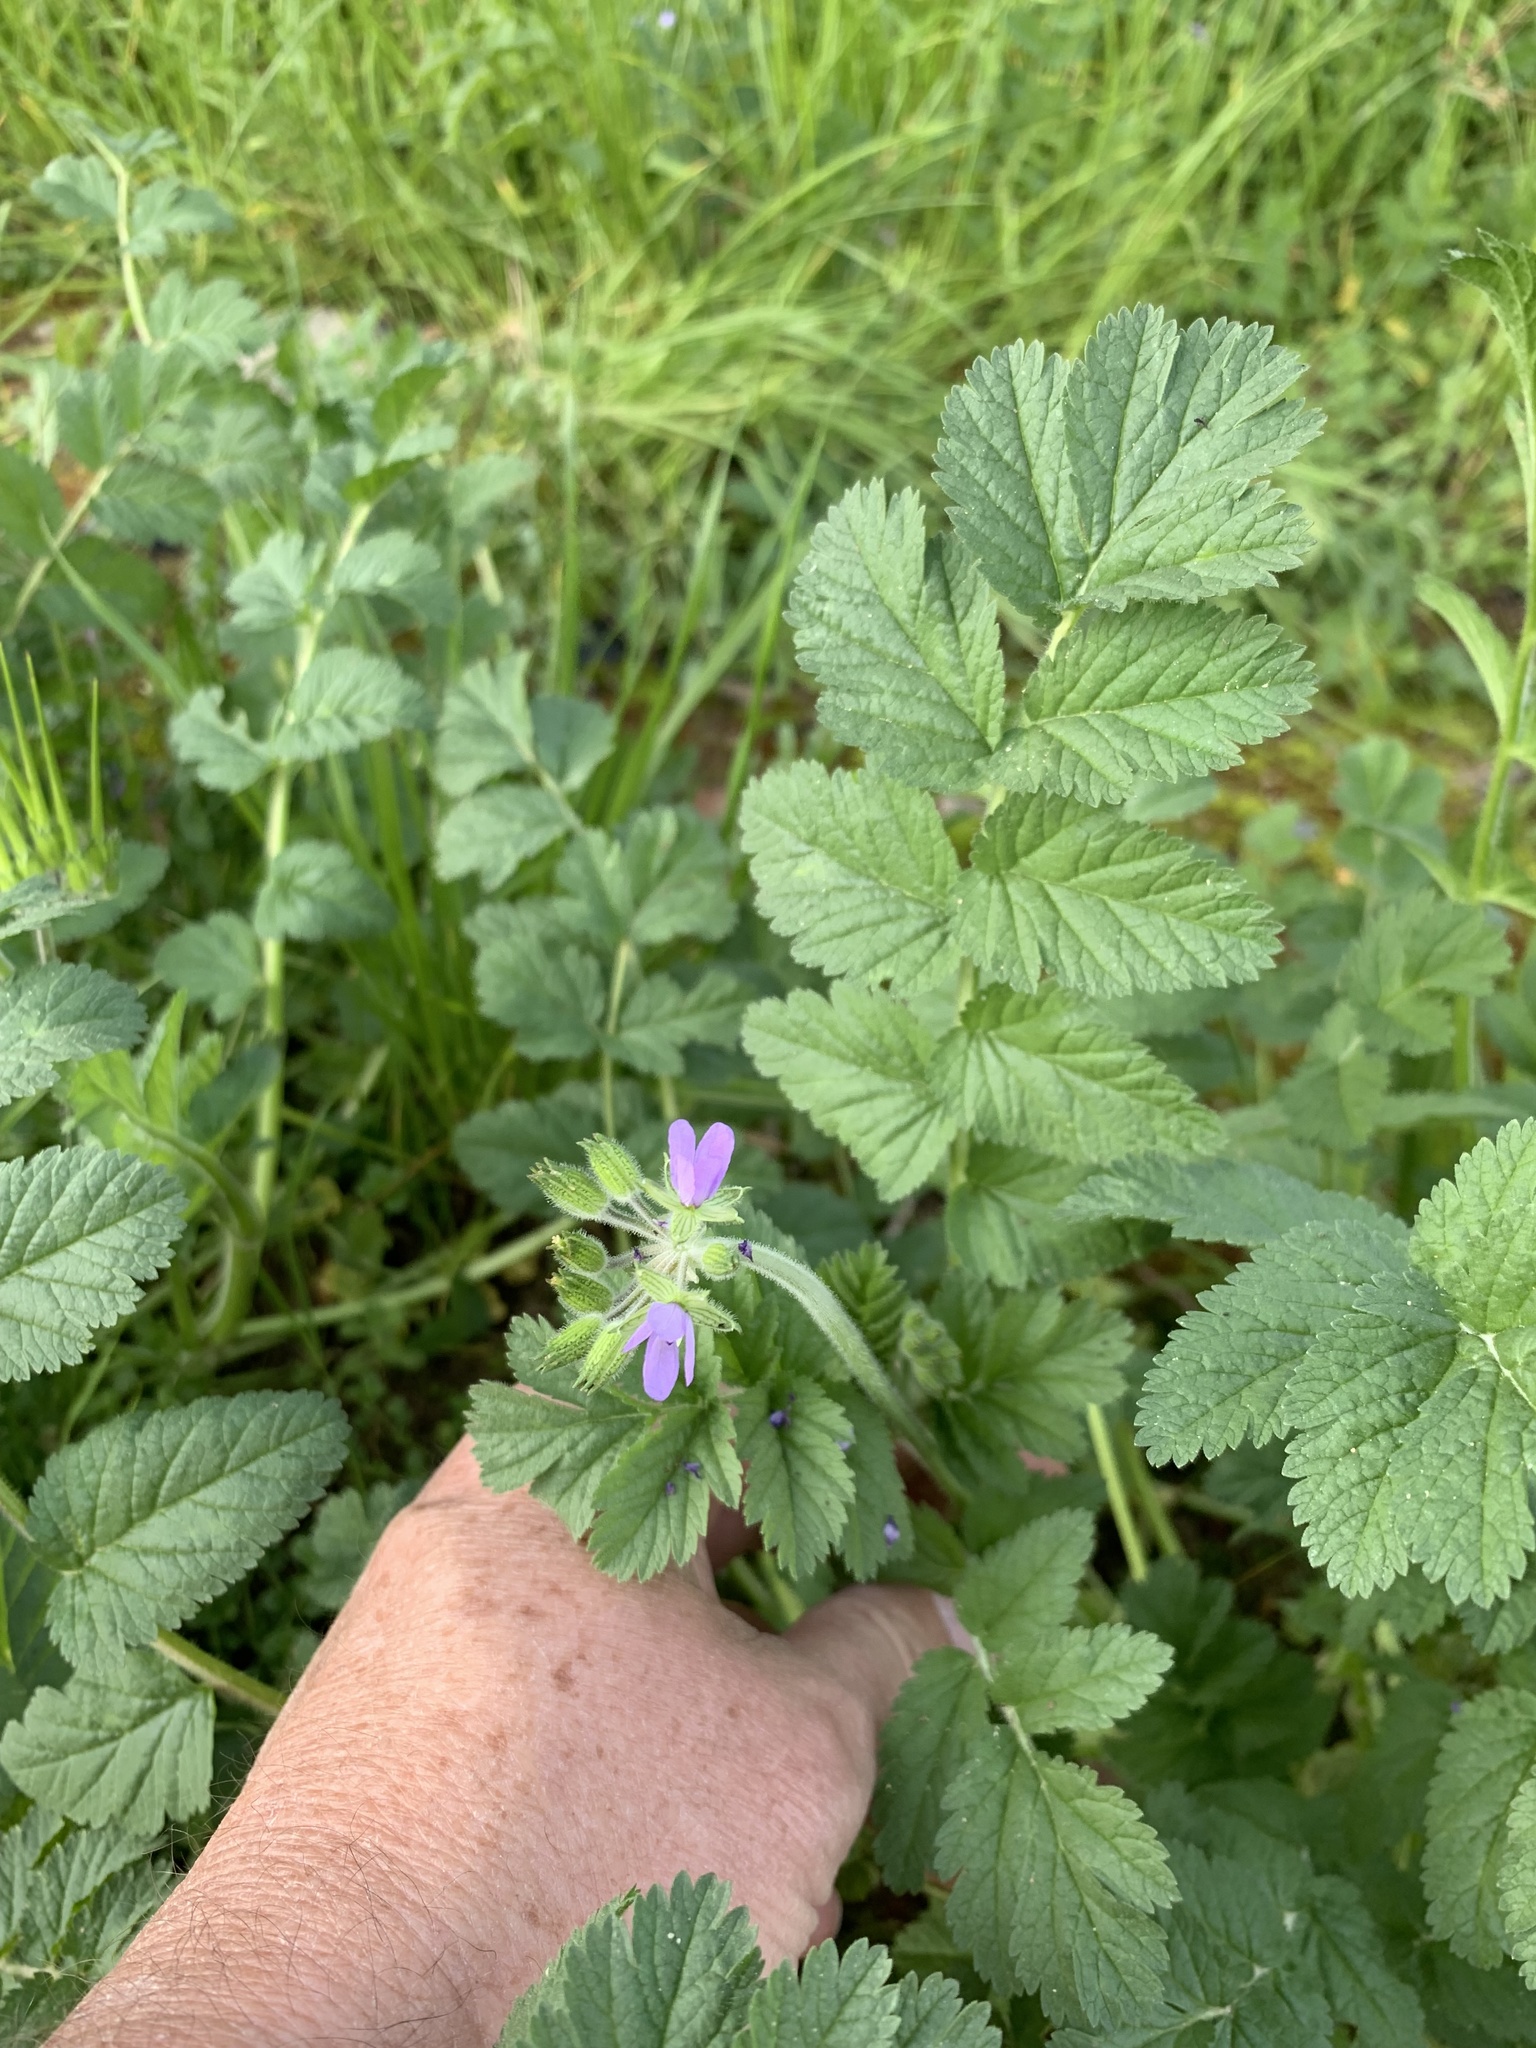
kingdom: Plantae
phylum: Tracheophyta
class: Magnoliopsida
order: Geraniales
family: Geraniaceae
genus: Erodium
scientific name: Erodium moschatum
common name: Musk stork's-bill
